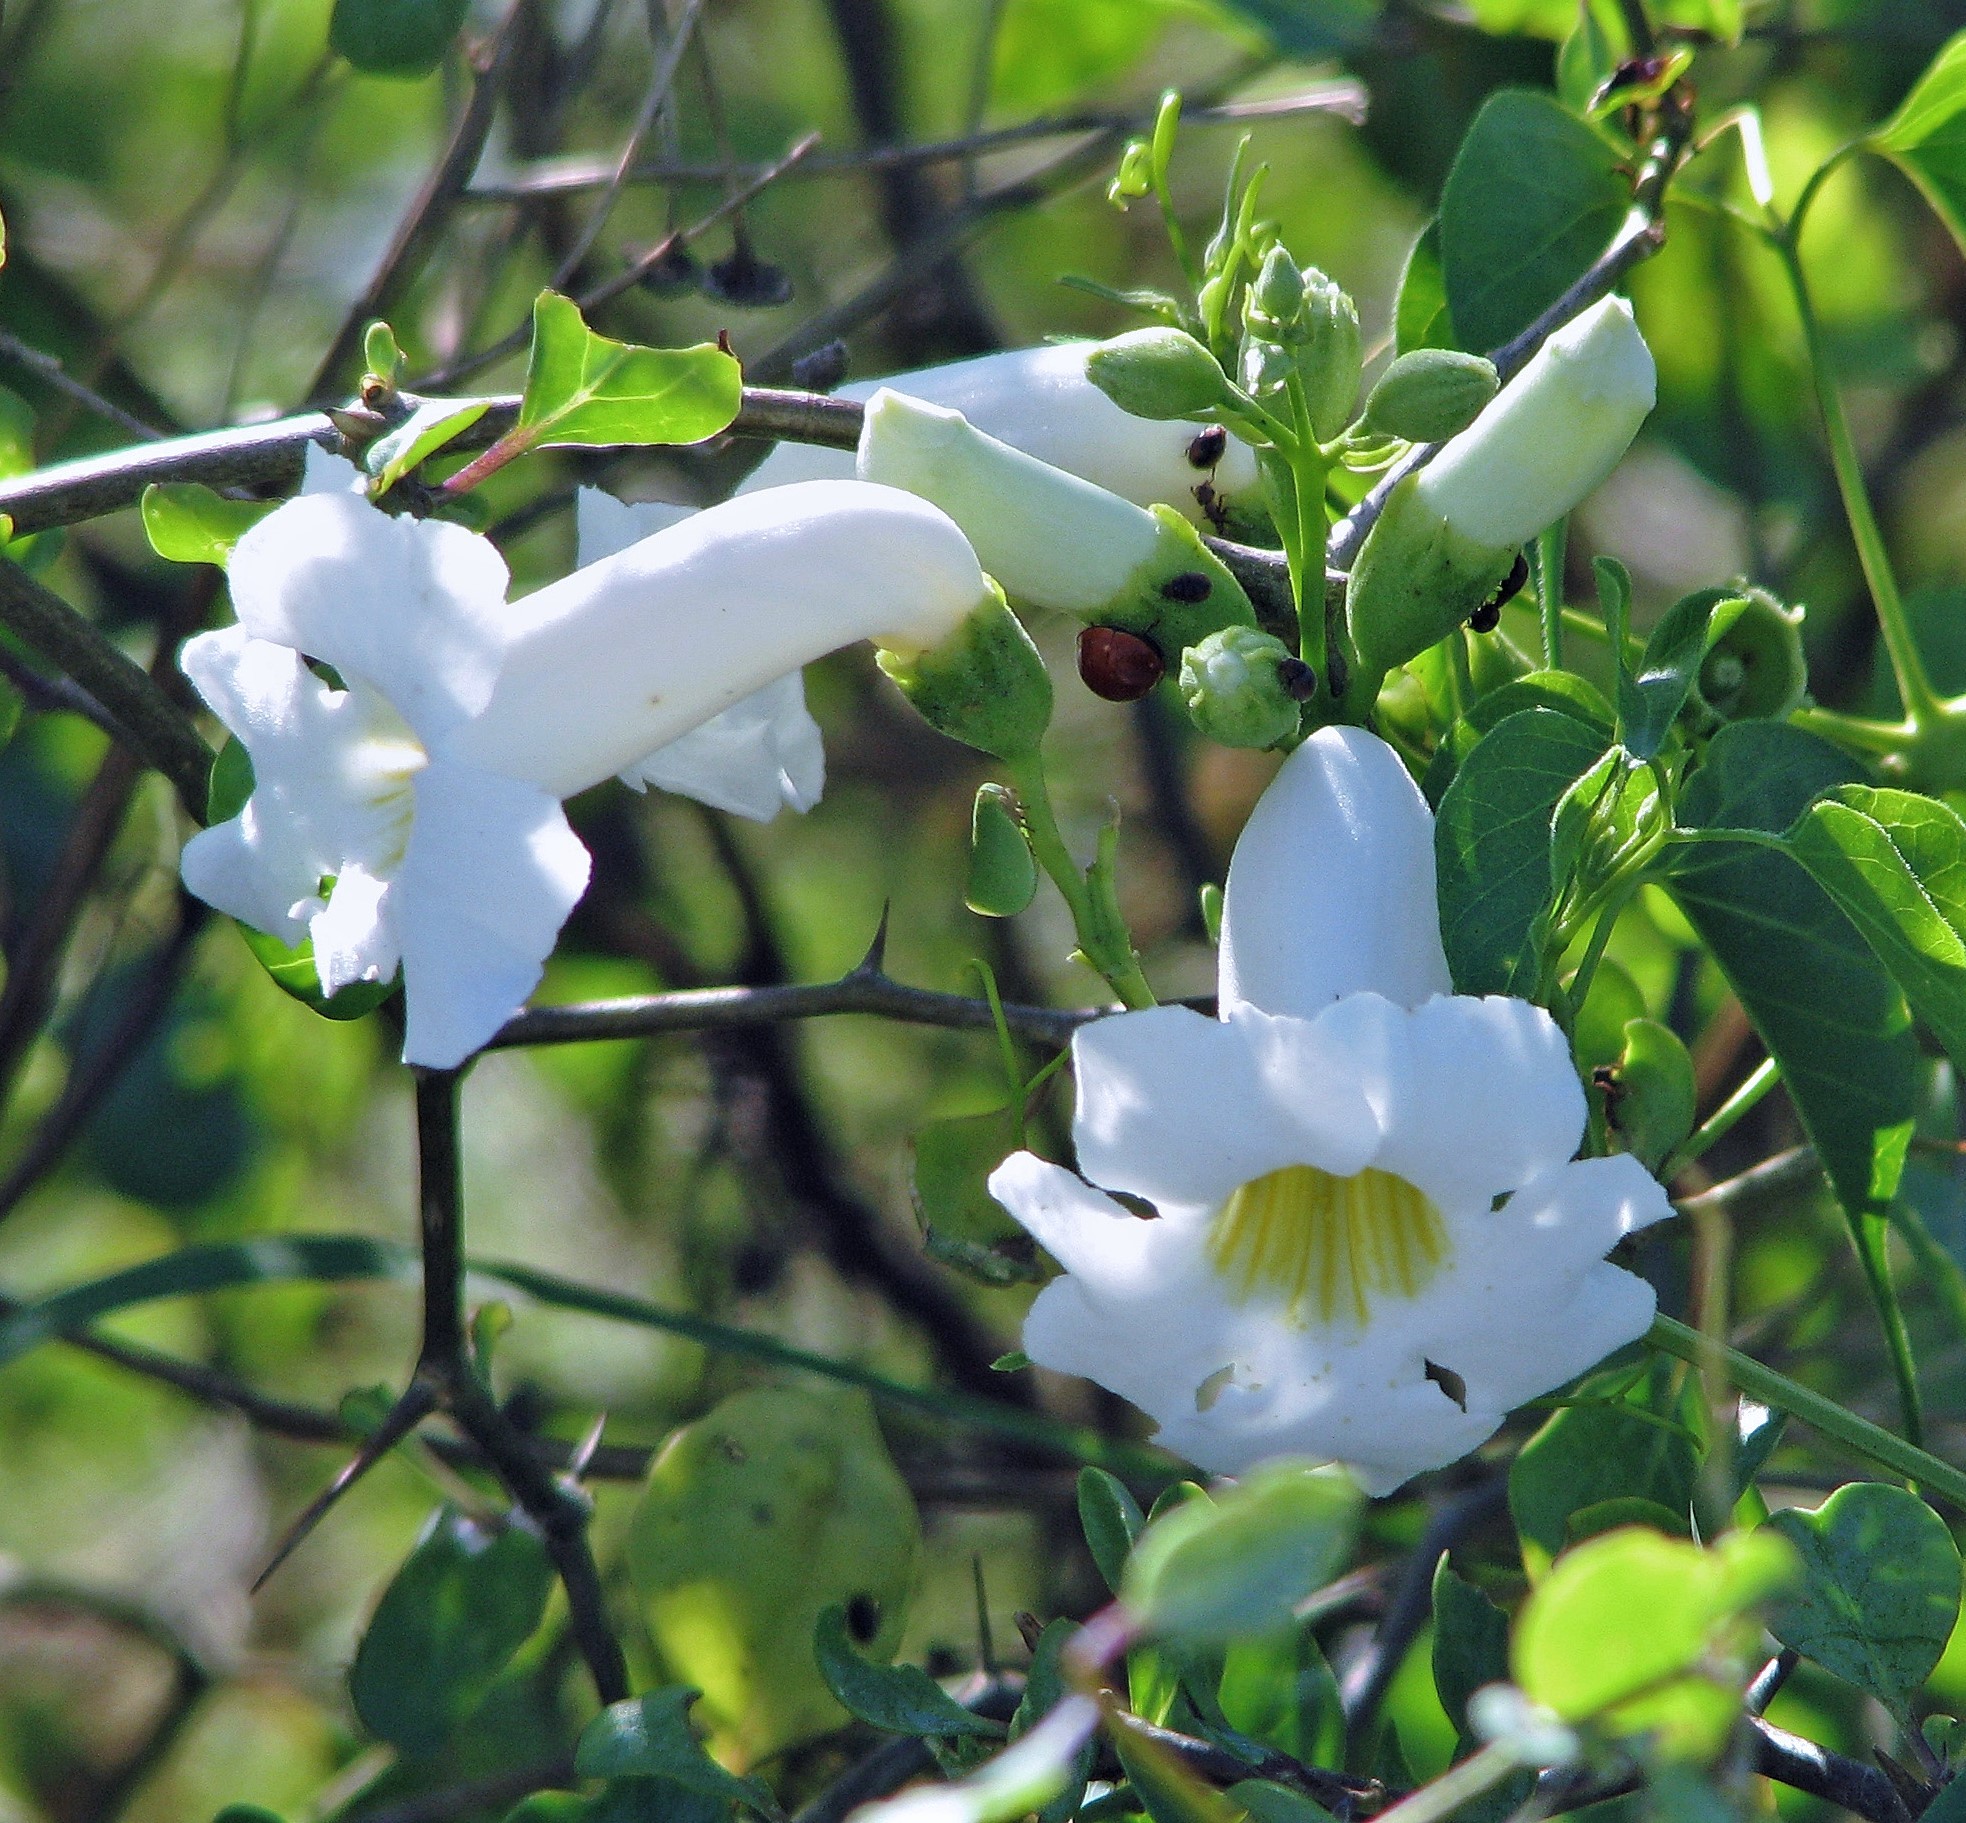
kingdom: Plantae
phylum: Tracheophyta
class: Magnoliopsida
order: Lamiales
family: Bignoniaceae
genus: Amphilophium
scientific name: Amphilophium carolinae
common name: Monkey's-comb
